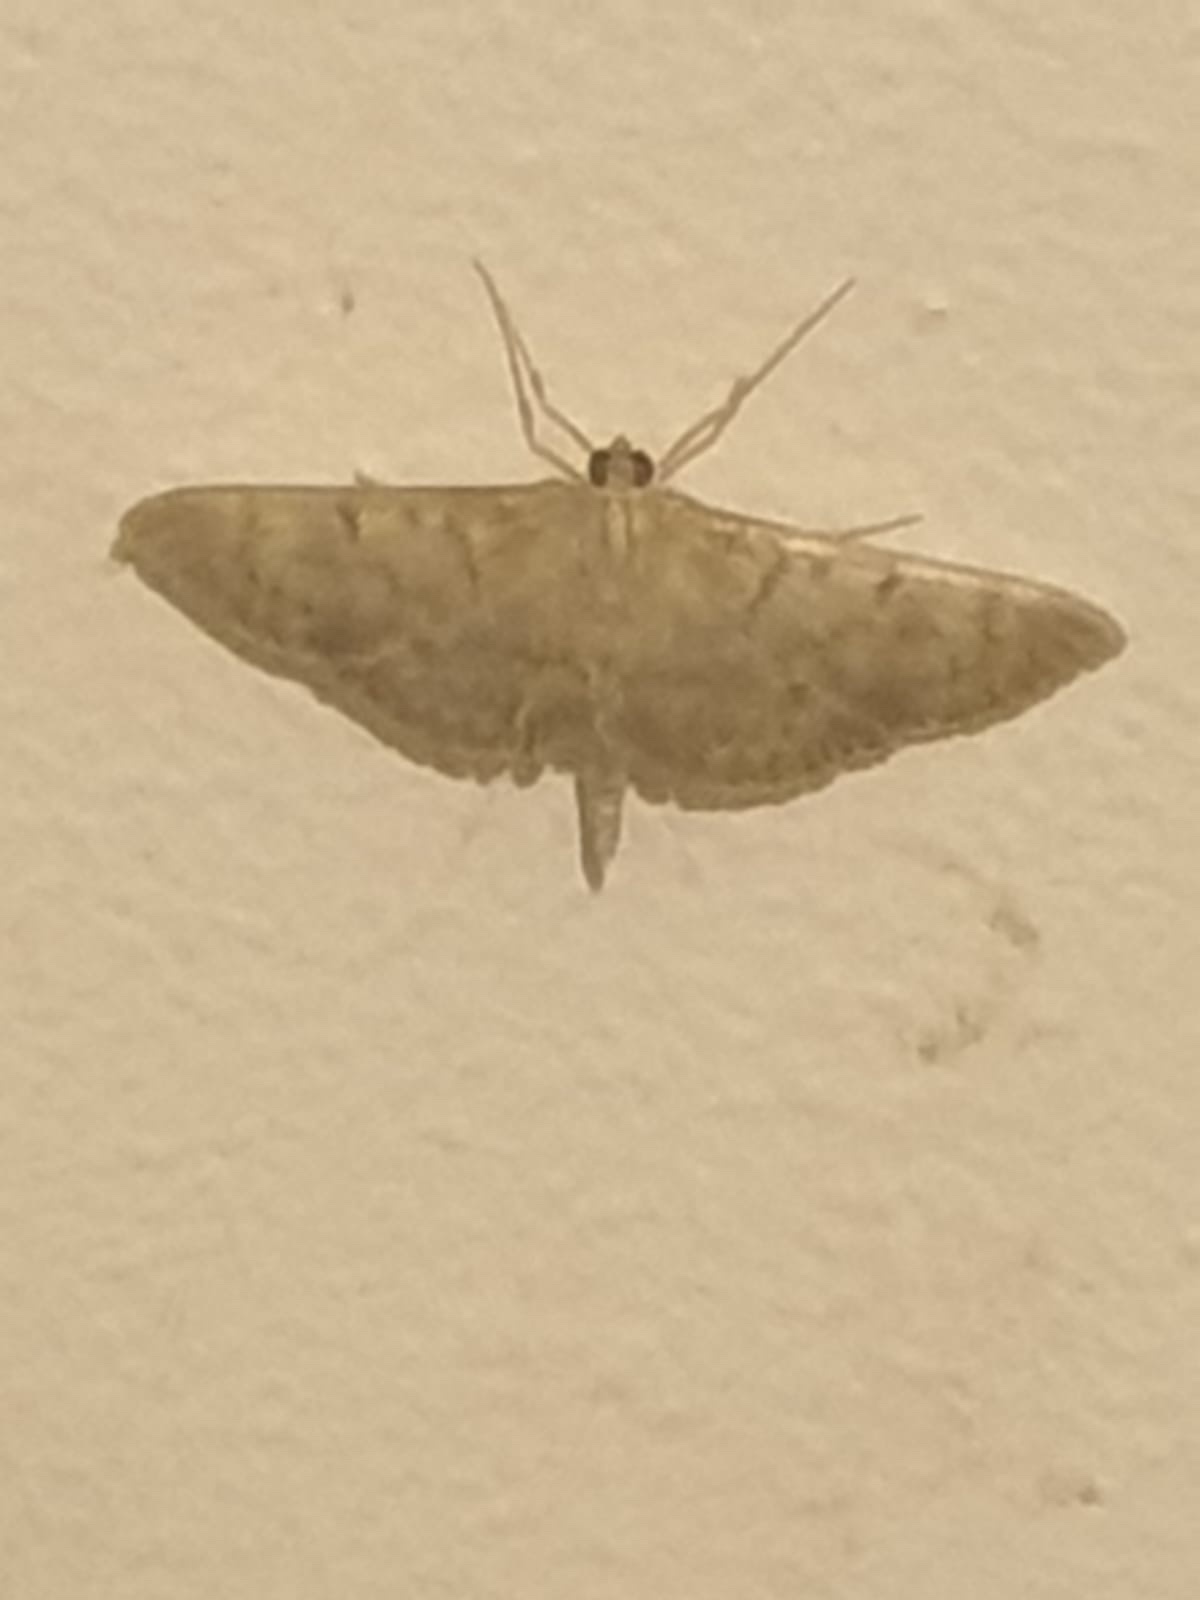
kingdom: Animalia
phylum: Arthropoda
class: Insecta
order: Lepidoptera
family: Crambidae
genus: Patania
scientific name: Patania ruralis
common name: Mother of pearl
